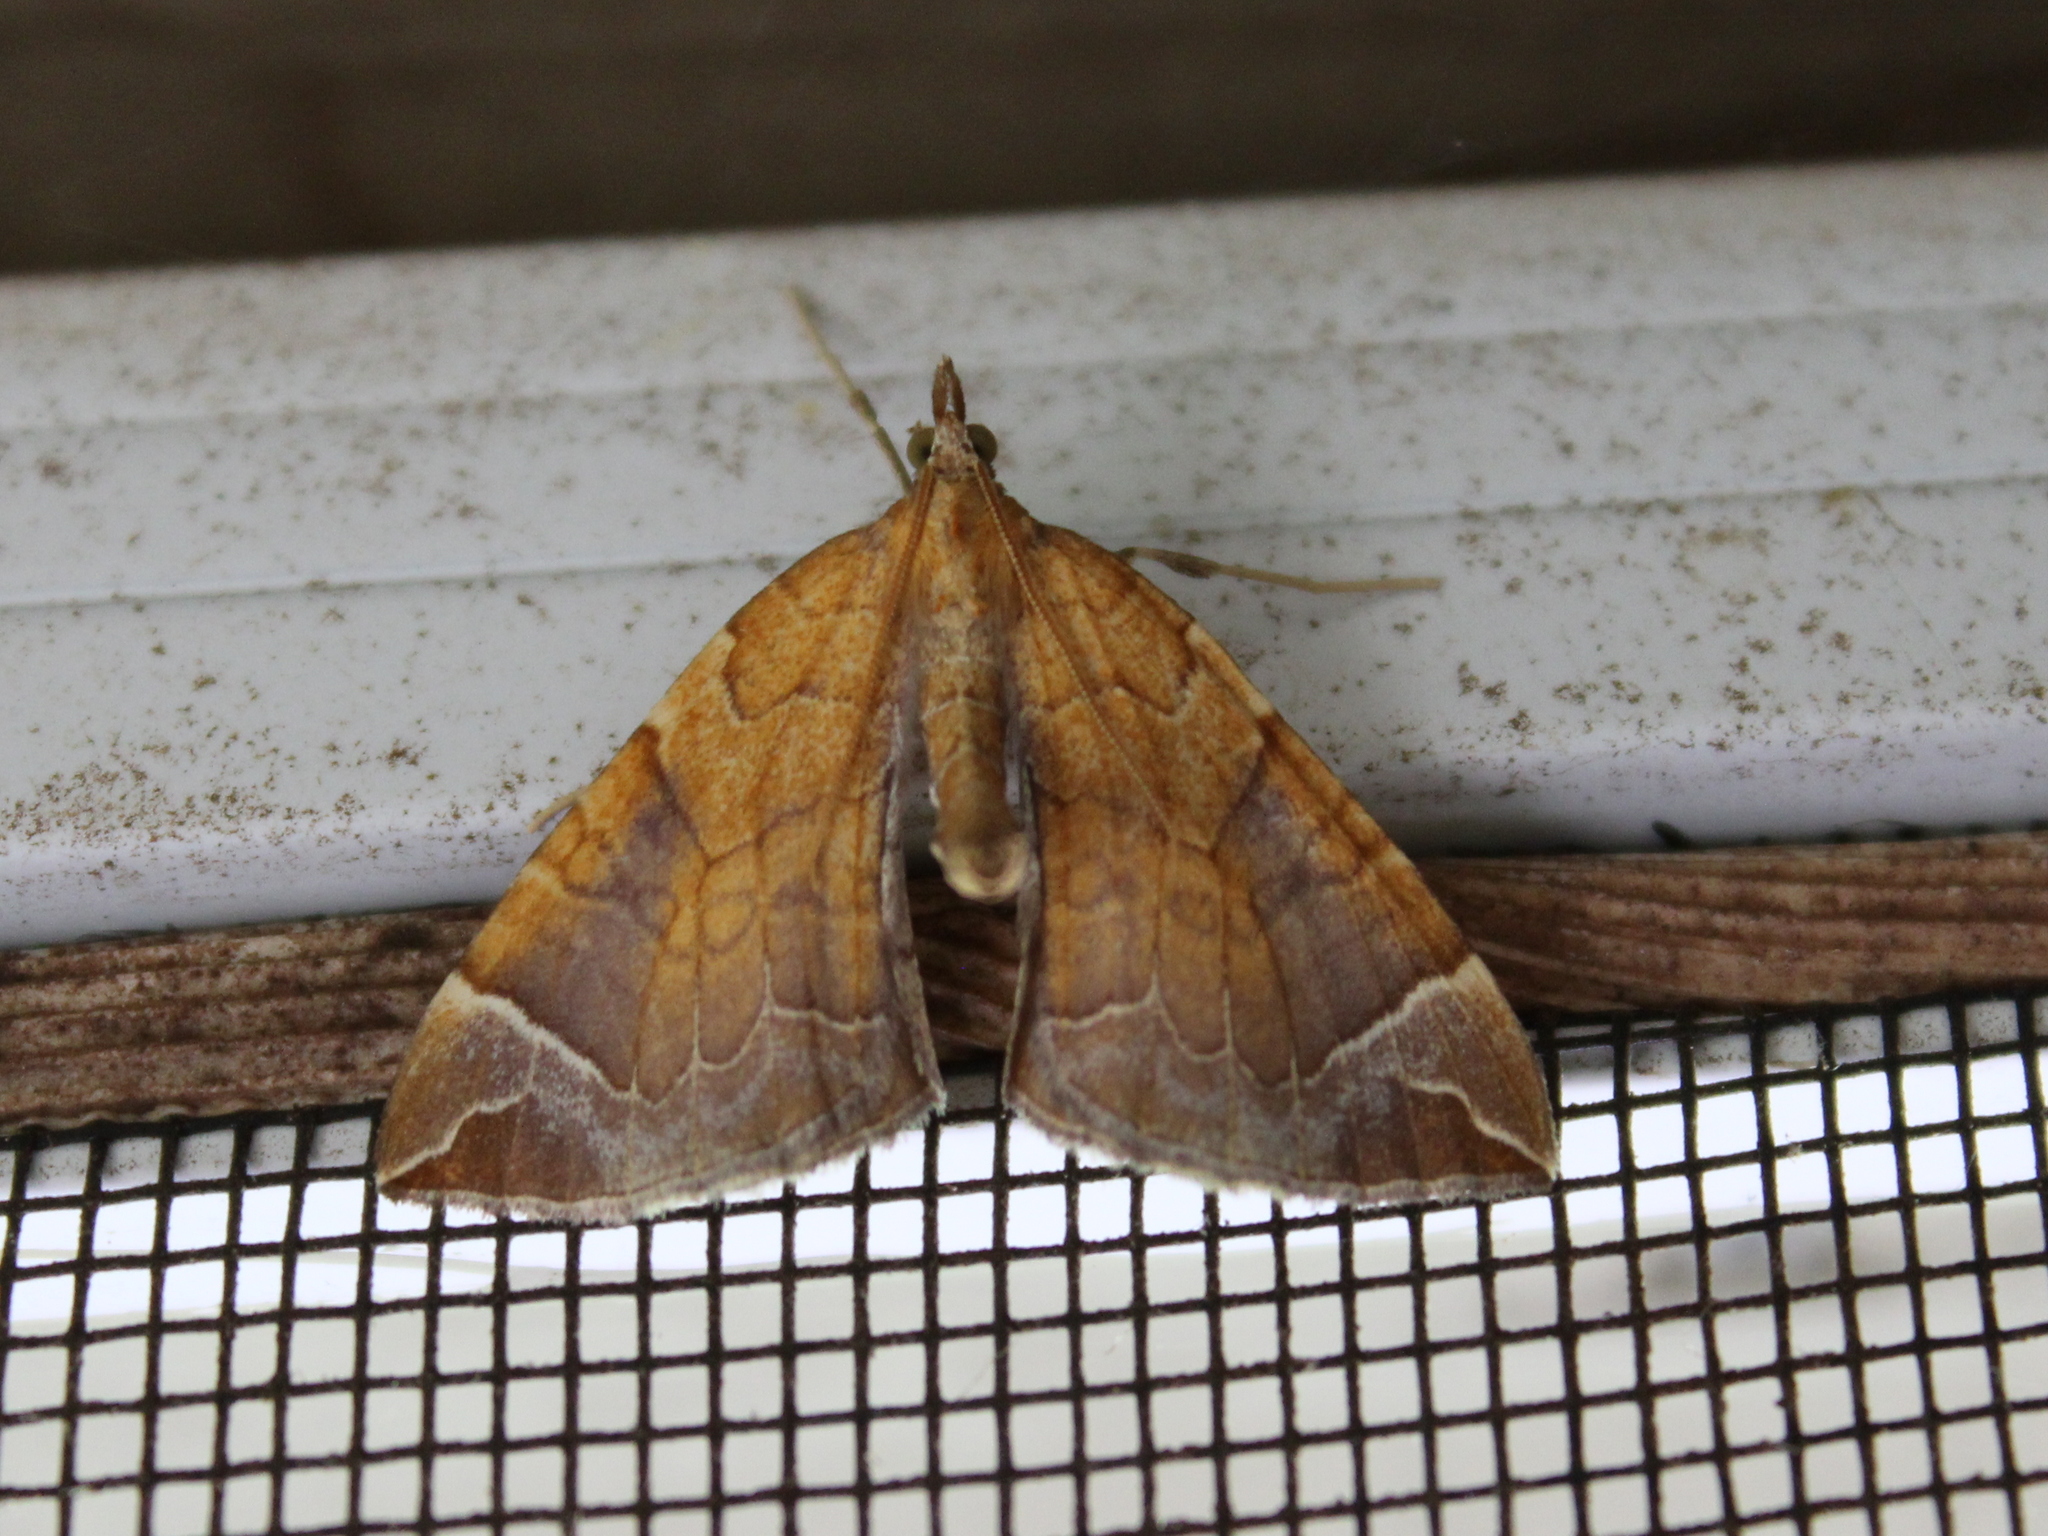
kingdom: Animalia
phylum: Arthropoda
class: Insecta
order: Lepidoptera
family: Geometridae
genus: Eulithis
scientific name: Eulithis testata
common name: Chevron
